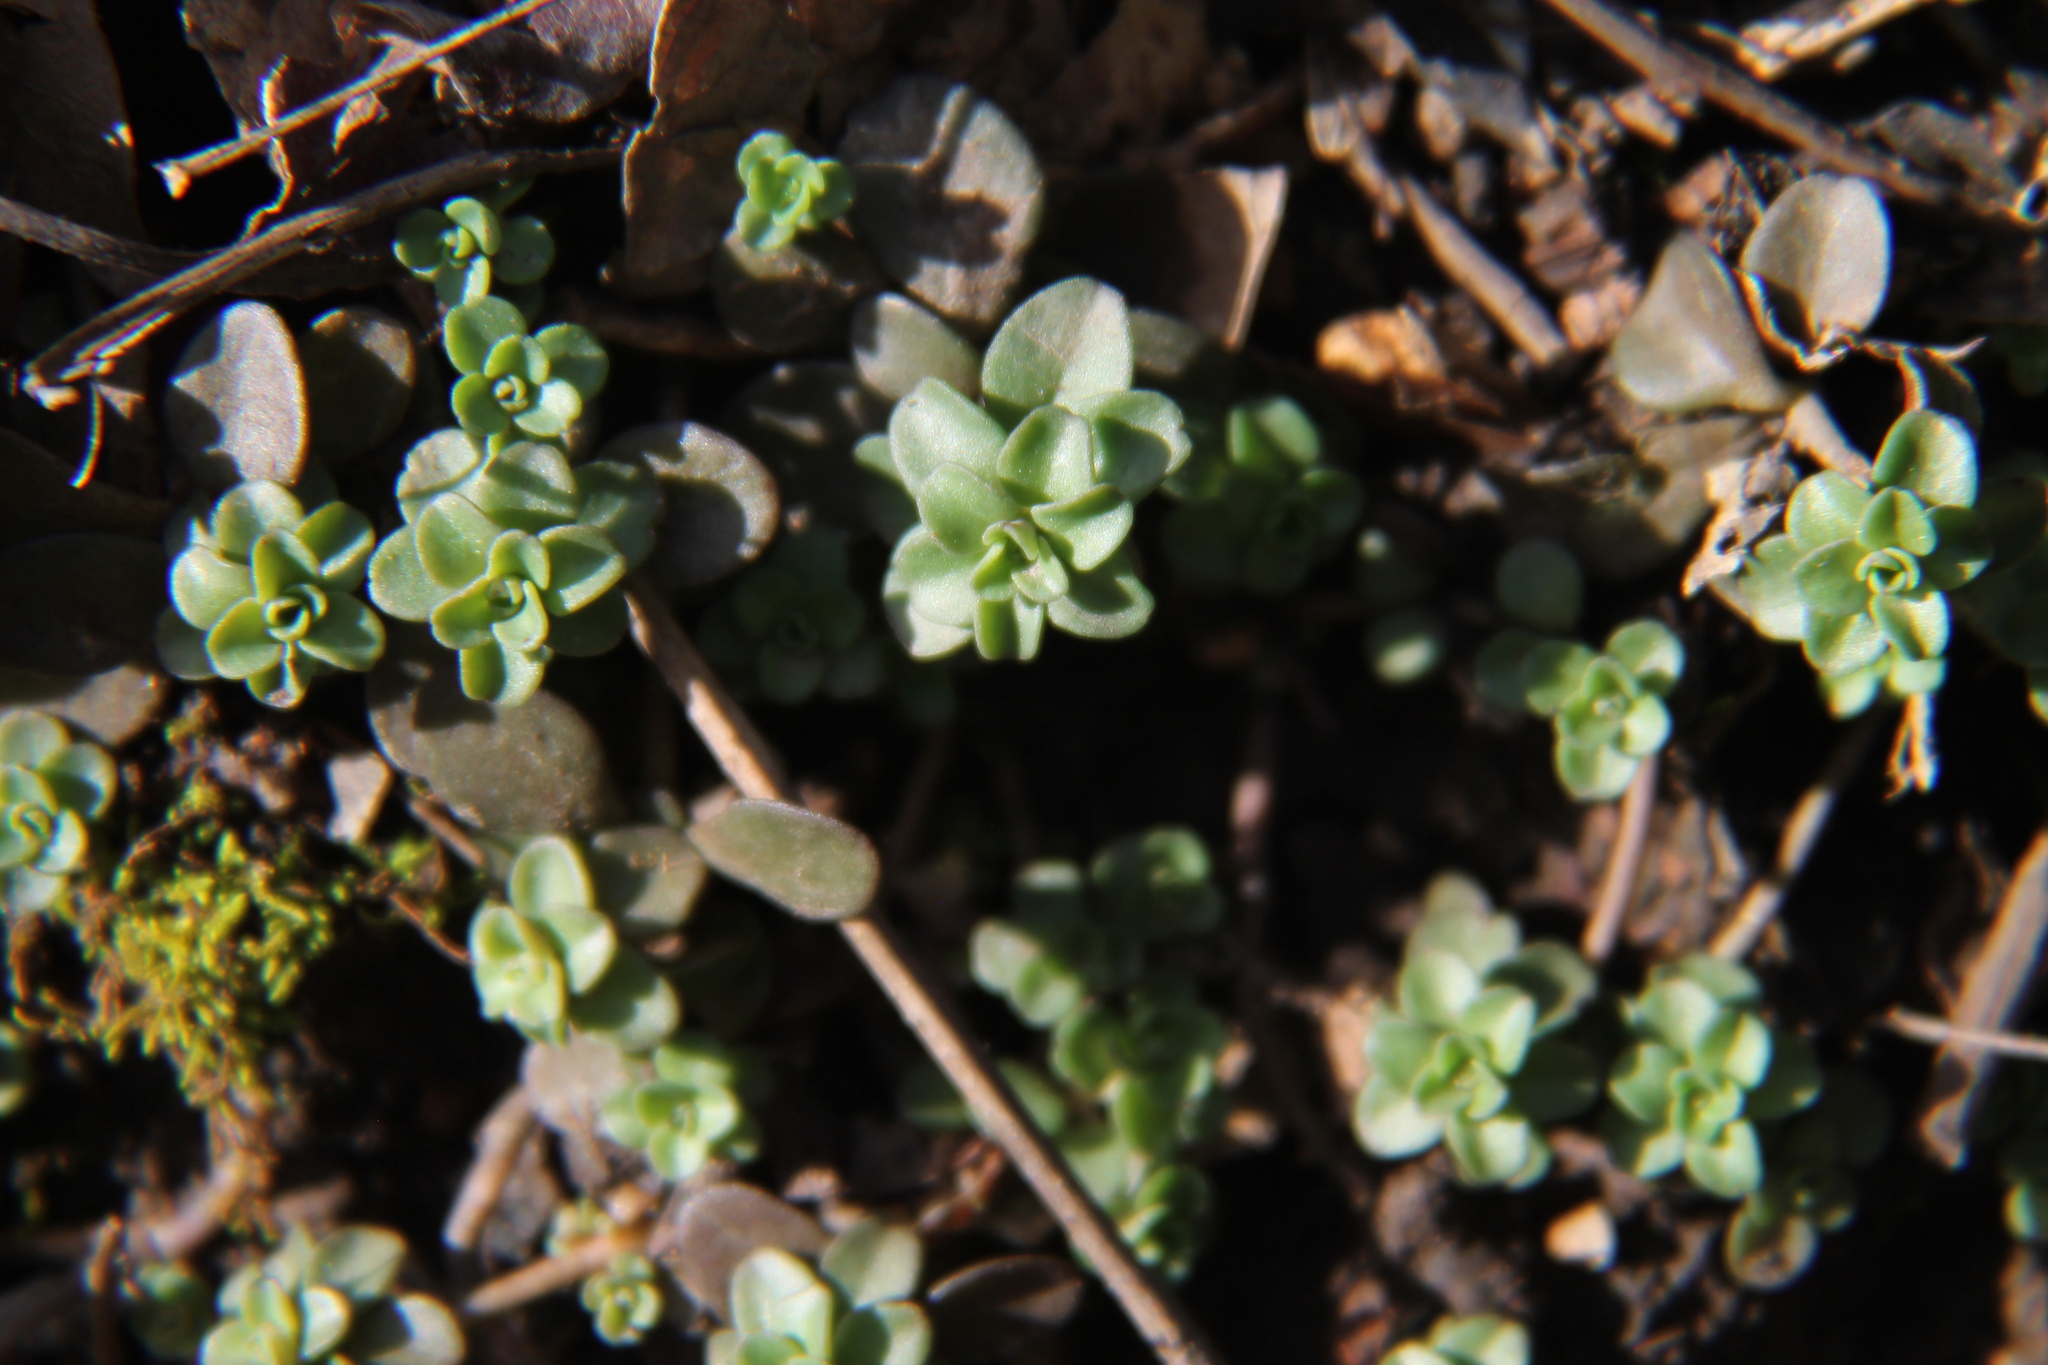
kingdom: Plantae
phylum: Tracheophyta
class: Magnoliopsida
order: Saxifragales
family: Crassulaceae
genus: Sedum
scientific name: Sedum ternatum
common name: Wild stonecrop
